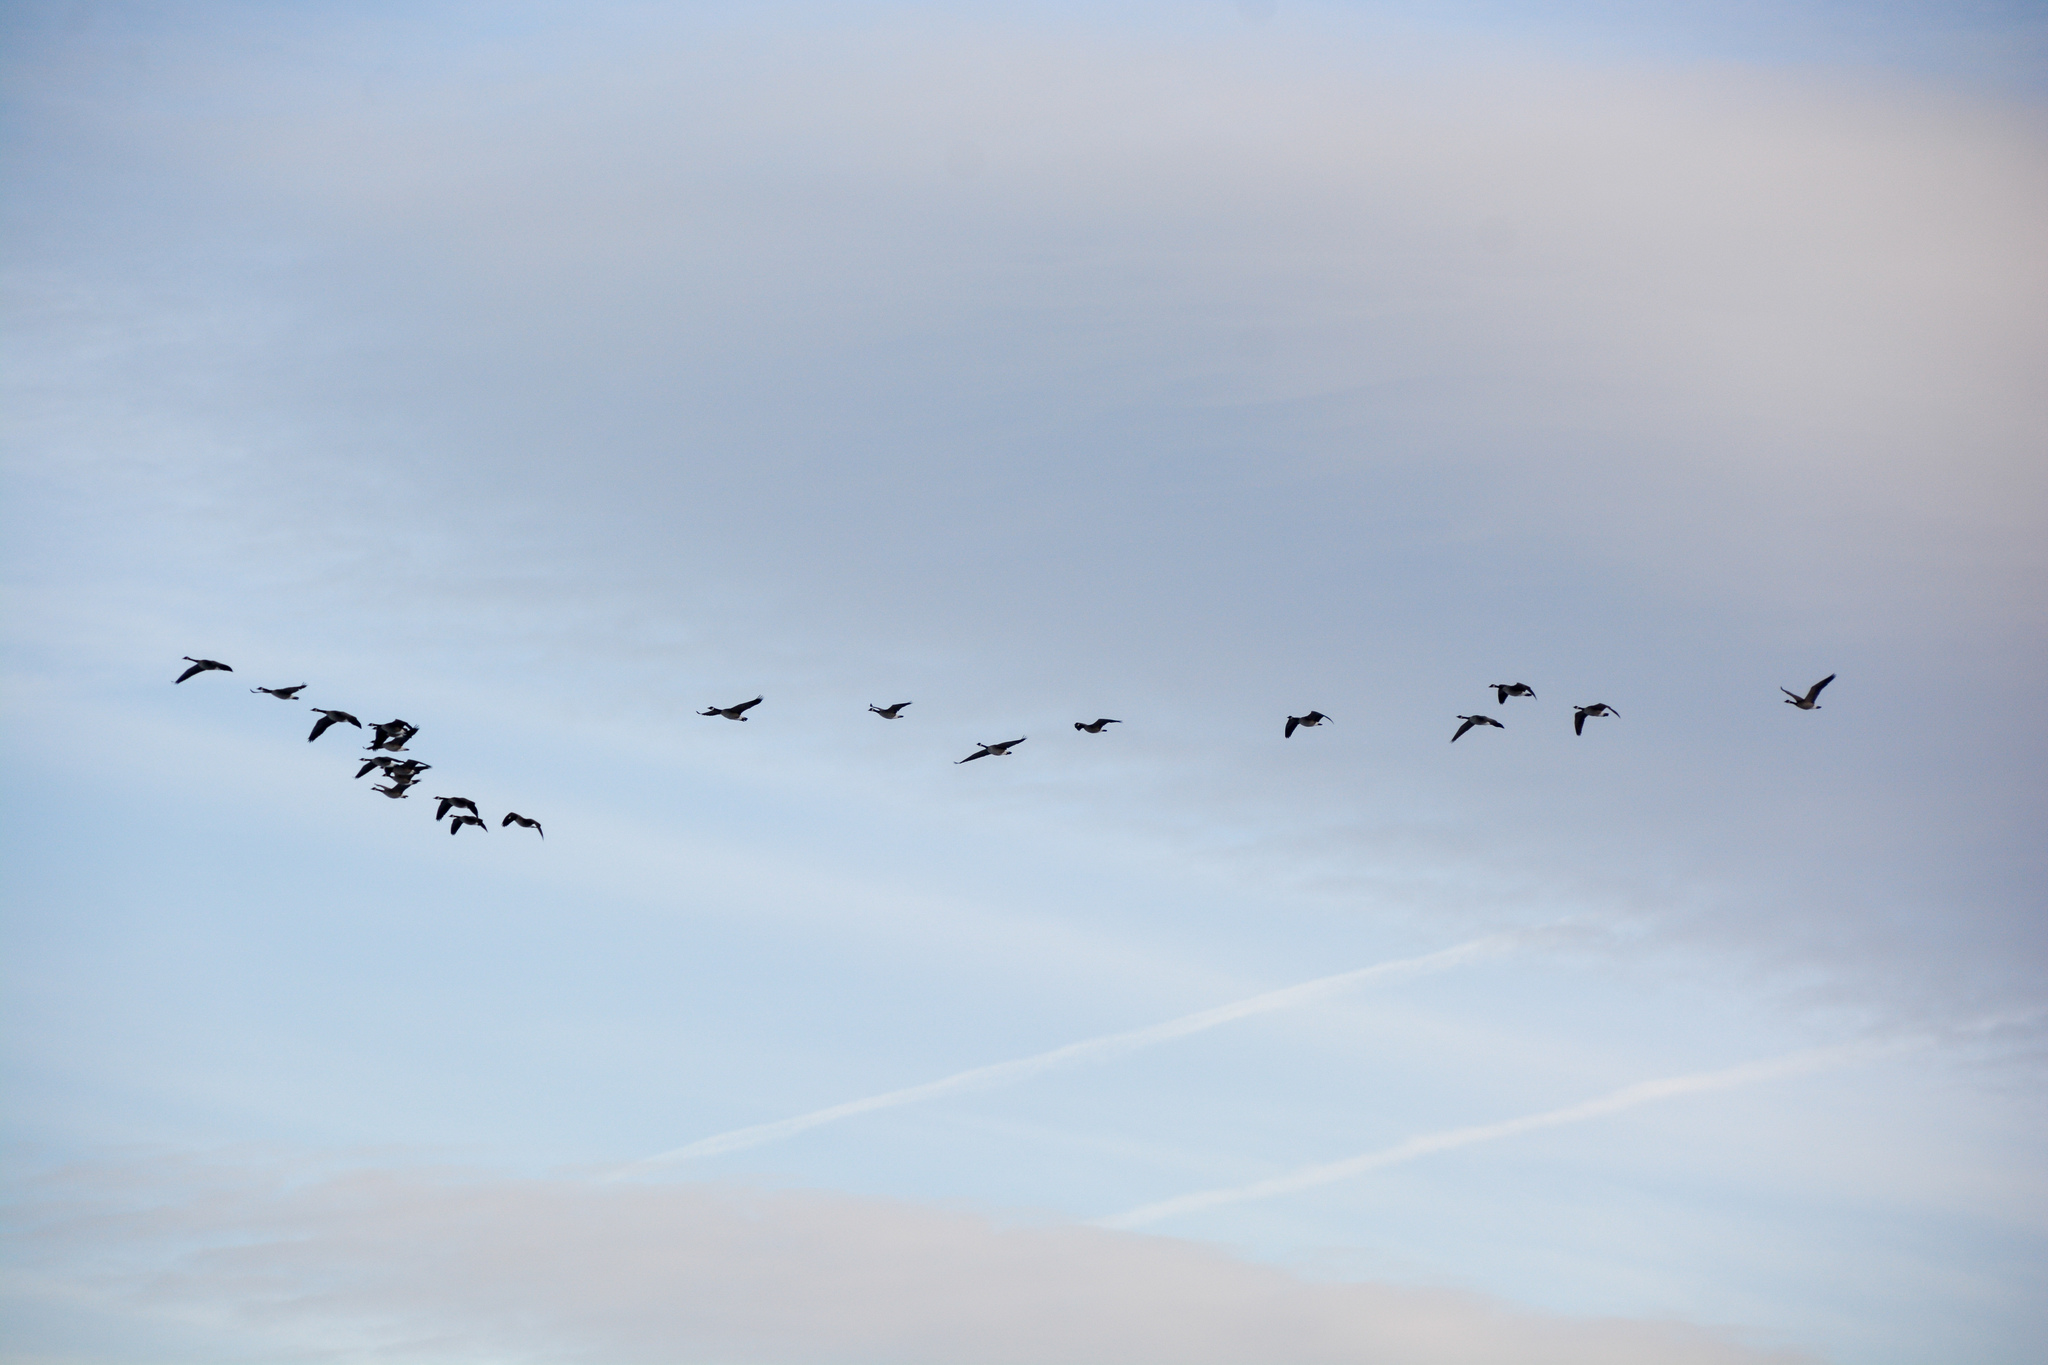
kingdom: Animalia
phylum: Chordata
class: Aves
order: Anseriformes
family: Anatidae
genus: Branta
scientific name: Branta canadensis
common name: Canada goose
